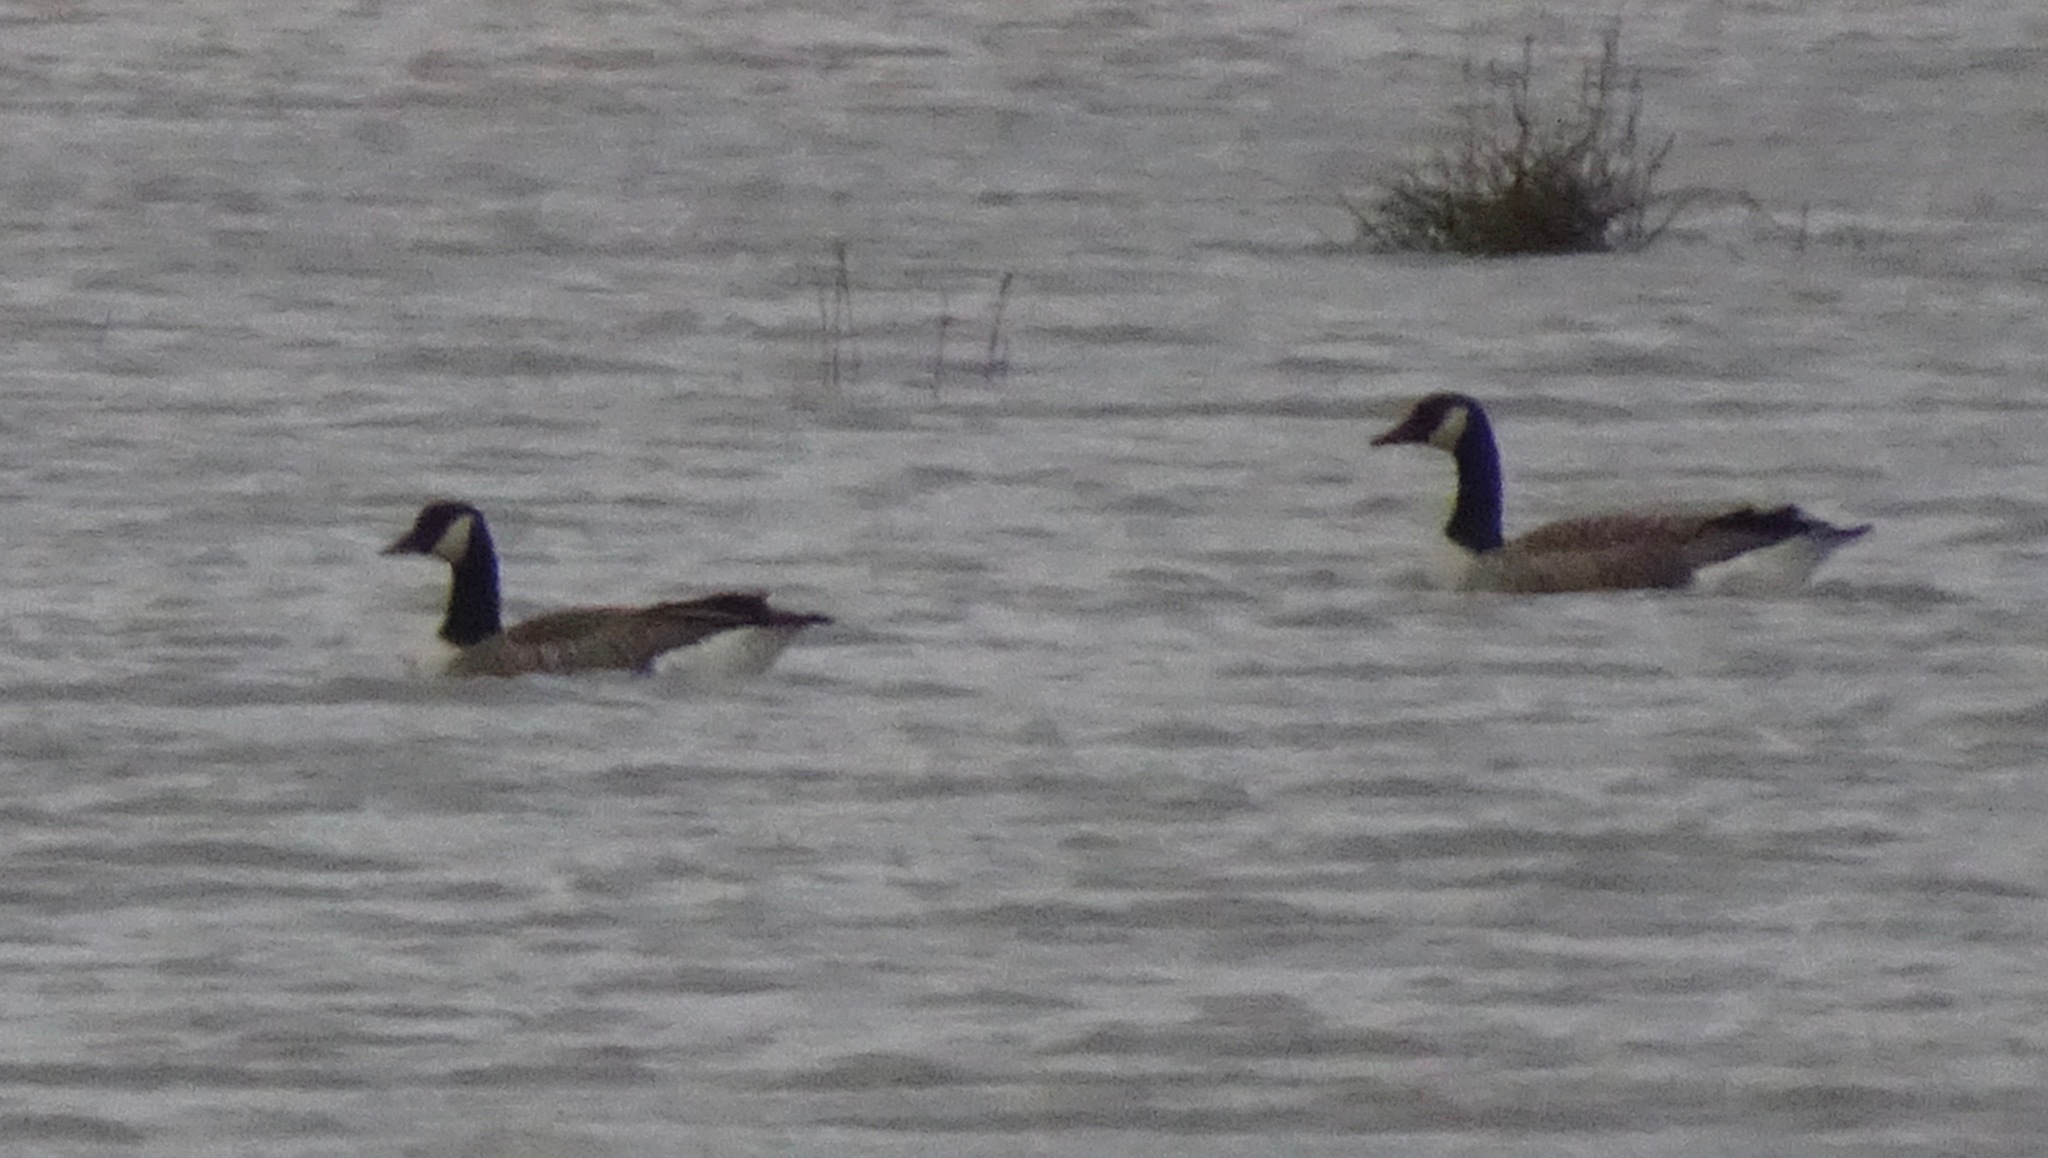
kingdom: Animalia
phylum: Chordata
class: Aves
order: Anseriformes
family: Anatidae
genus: Branta
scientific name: Branta canadensis
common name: Canada goose
